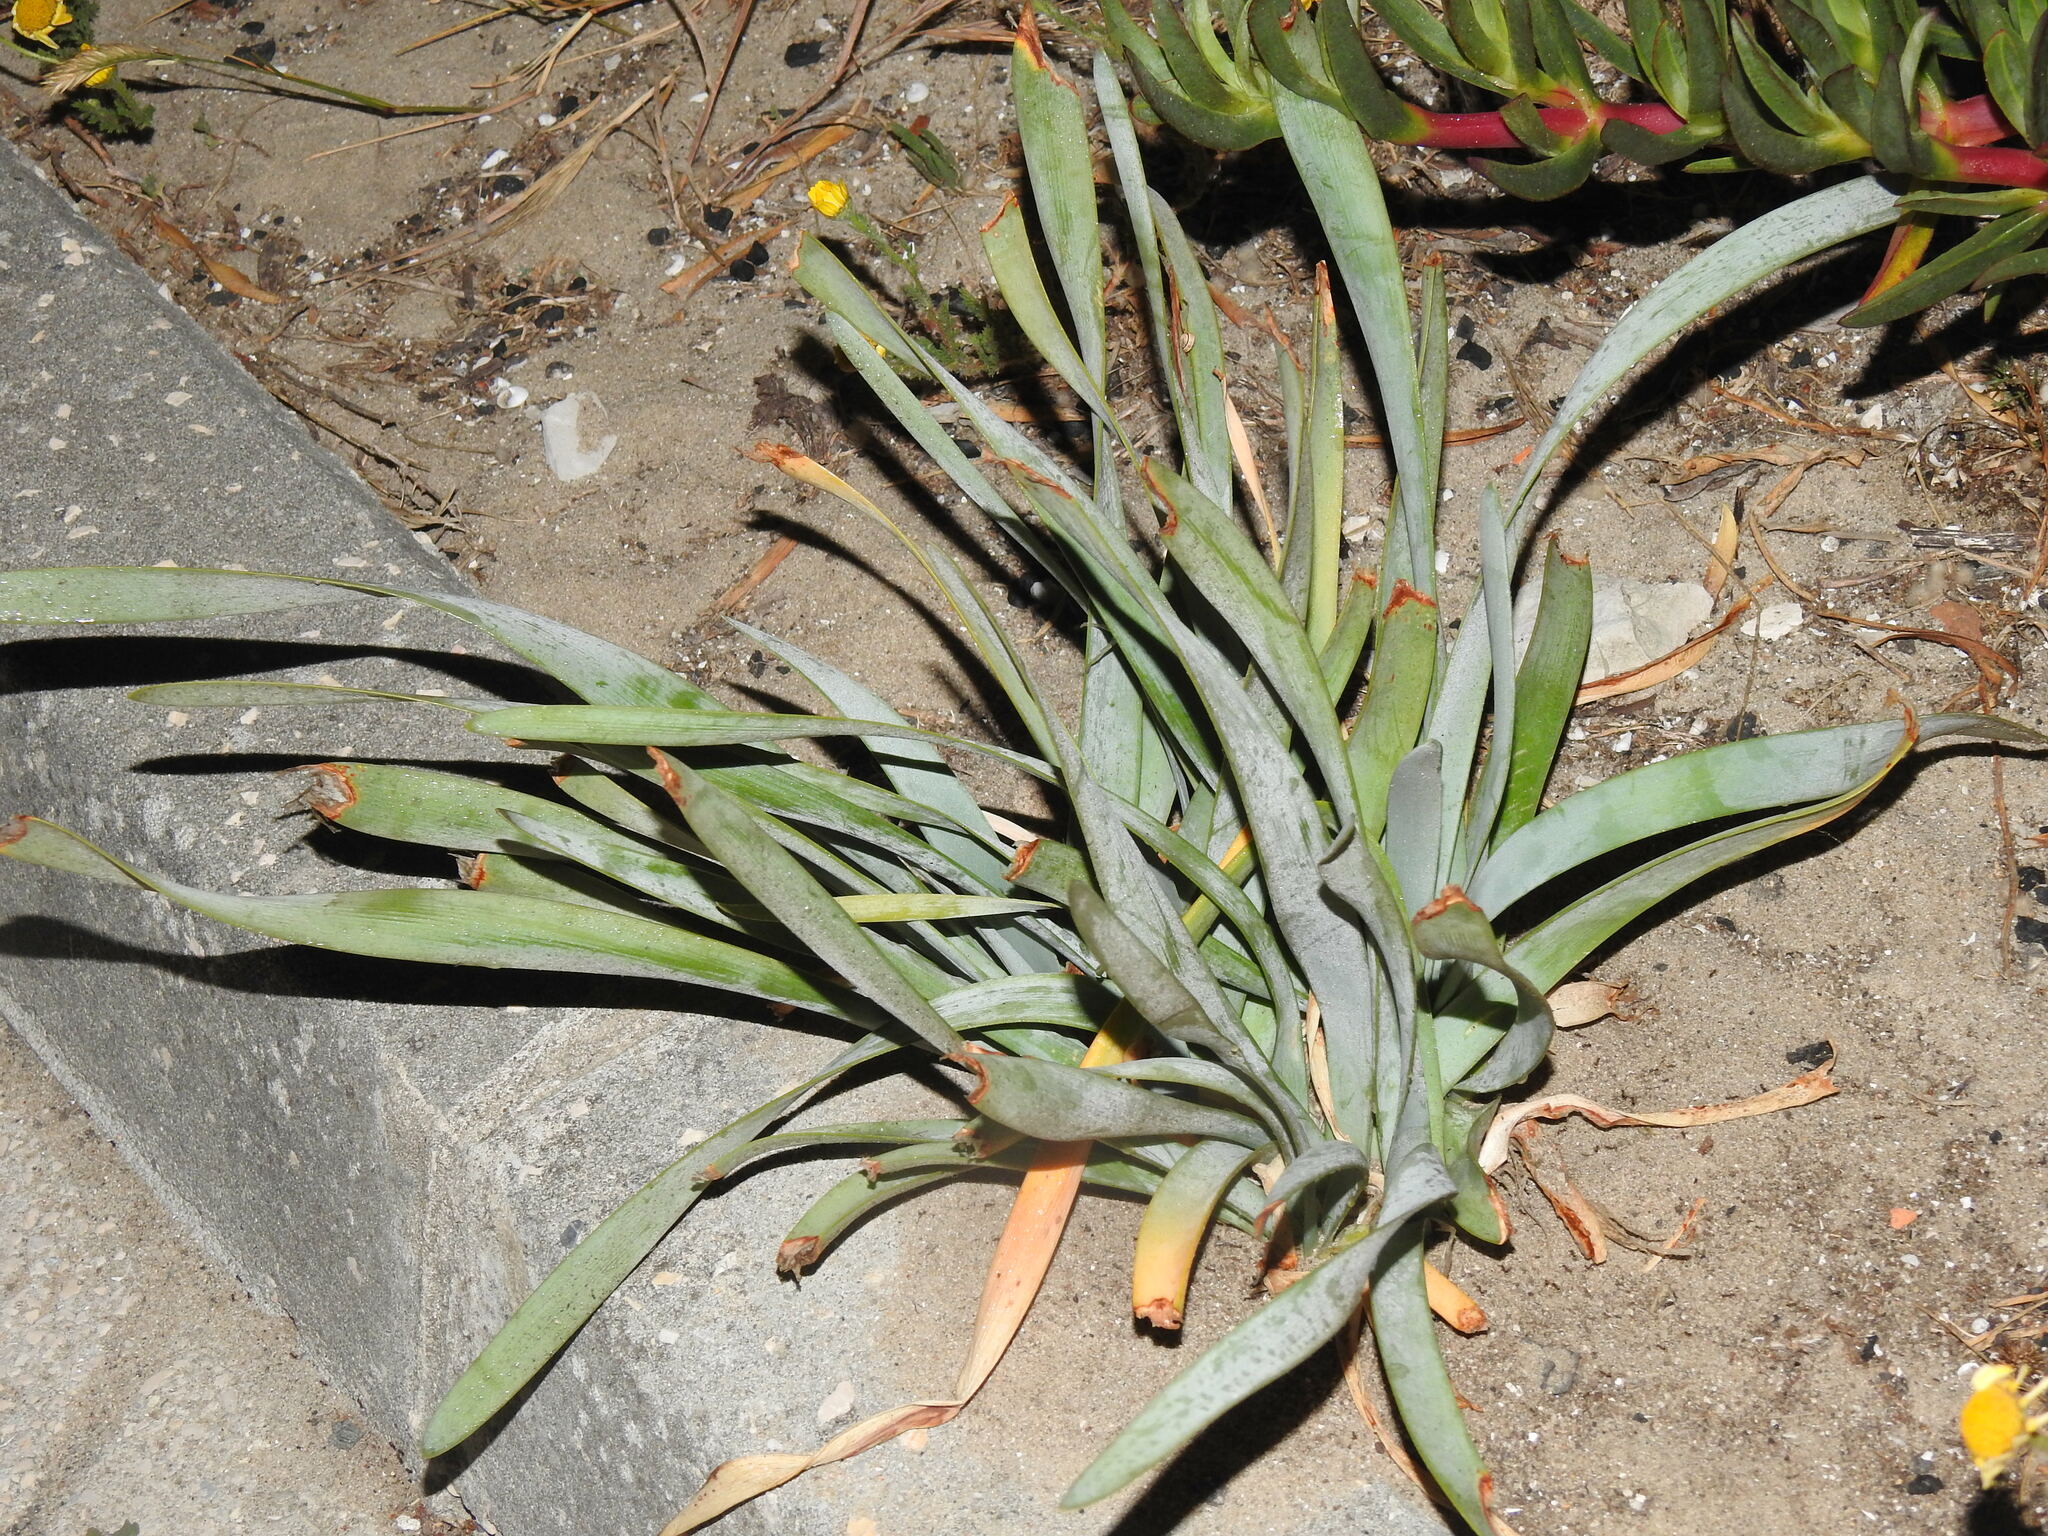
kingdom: Plantae
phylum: Tracheophyta
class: Liliopsida
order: Asparagales
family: Amaryllidaceae
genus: Pancratium
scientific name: Pancratium maritimum
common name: Sea-daffodil
